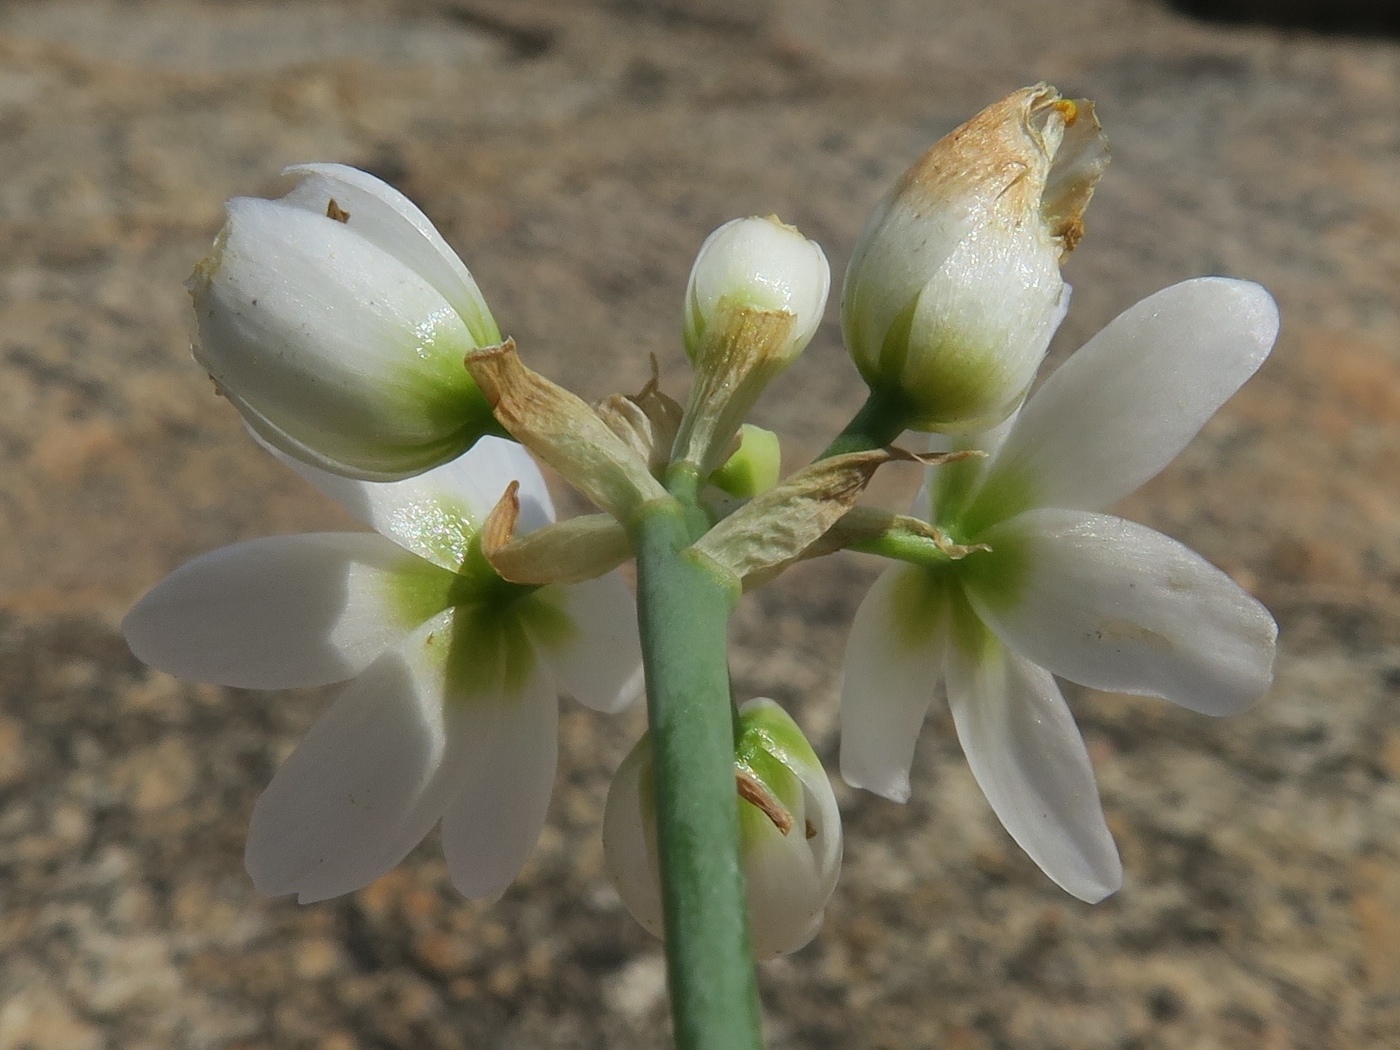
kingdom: Plantae
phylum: Tracheophyta
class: Liliopsida
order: Asparagales
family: Asparagaceae
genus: Ornithogalum
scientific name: Ornithogalum pruinosum
